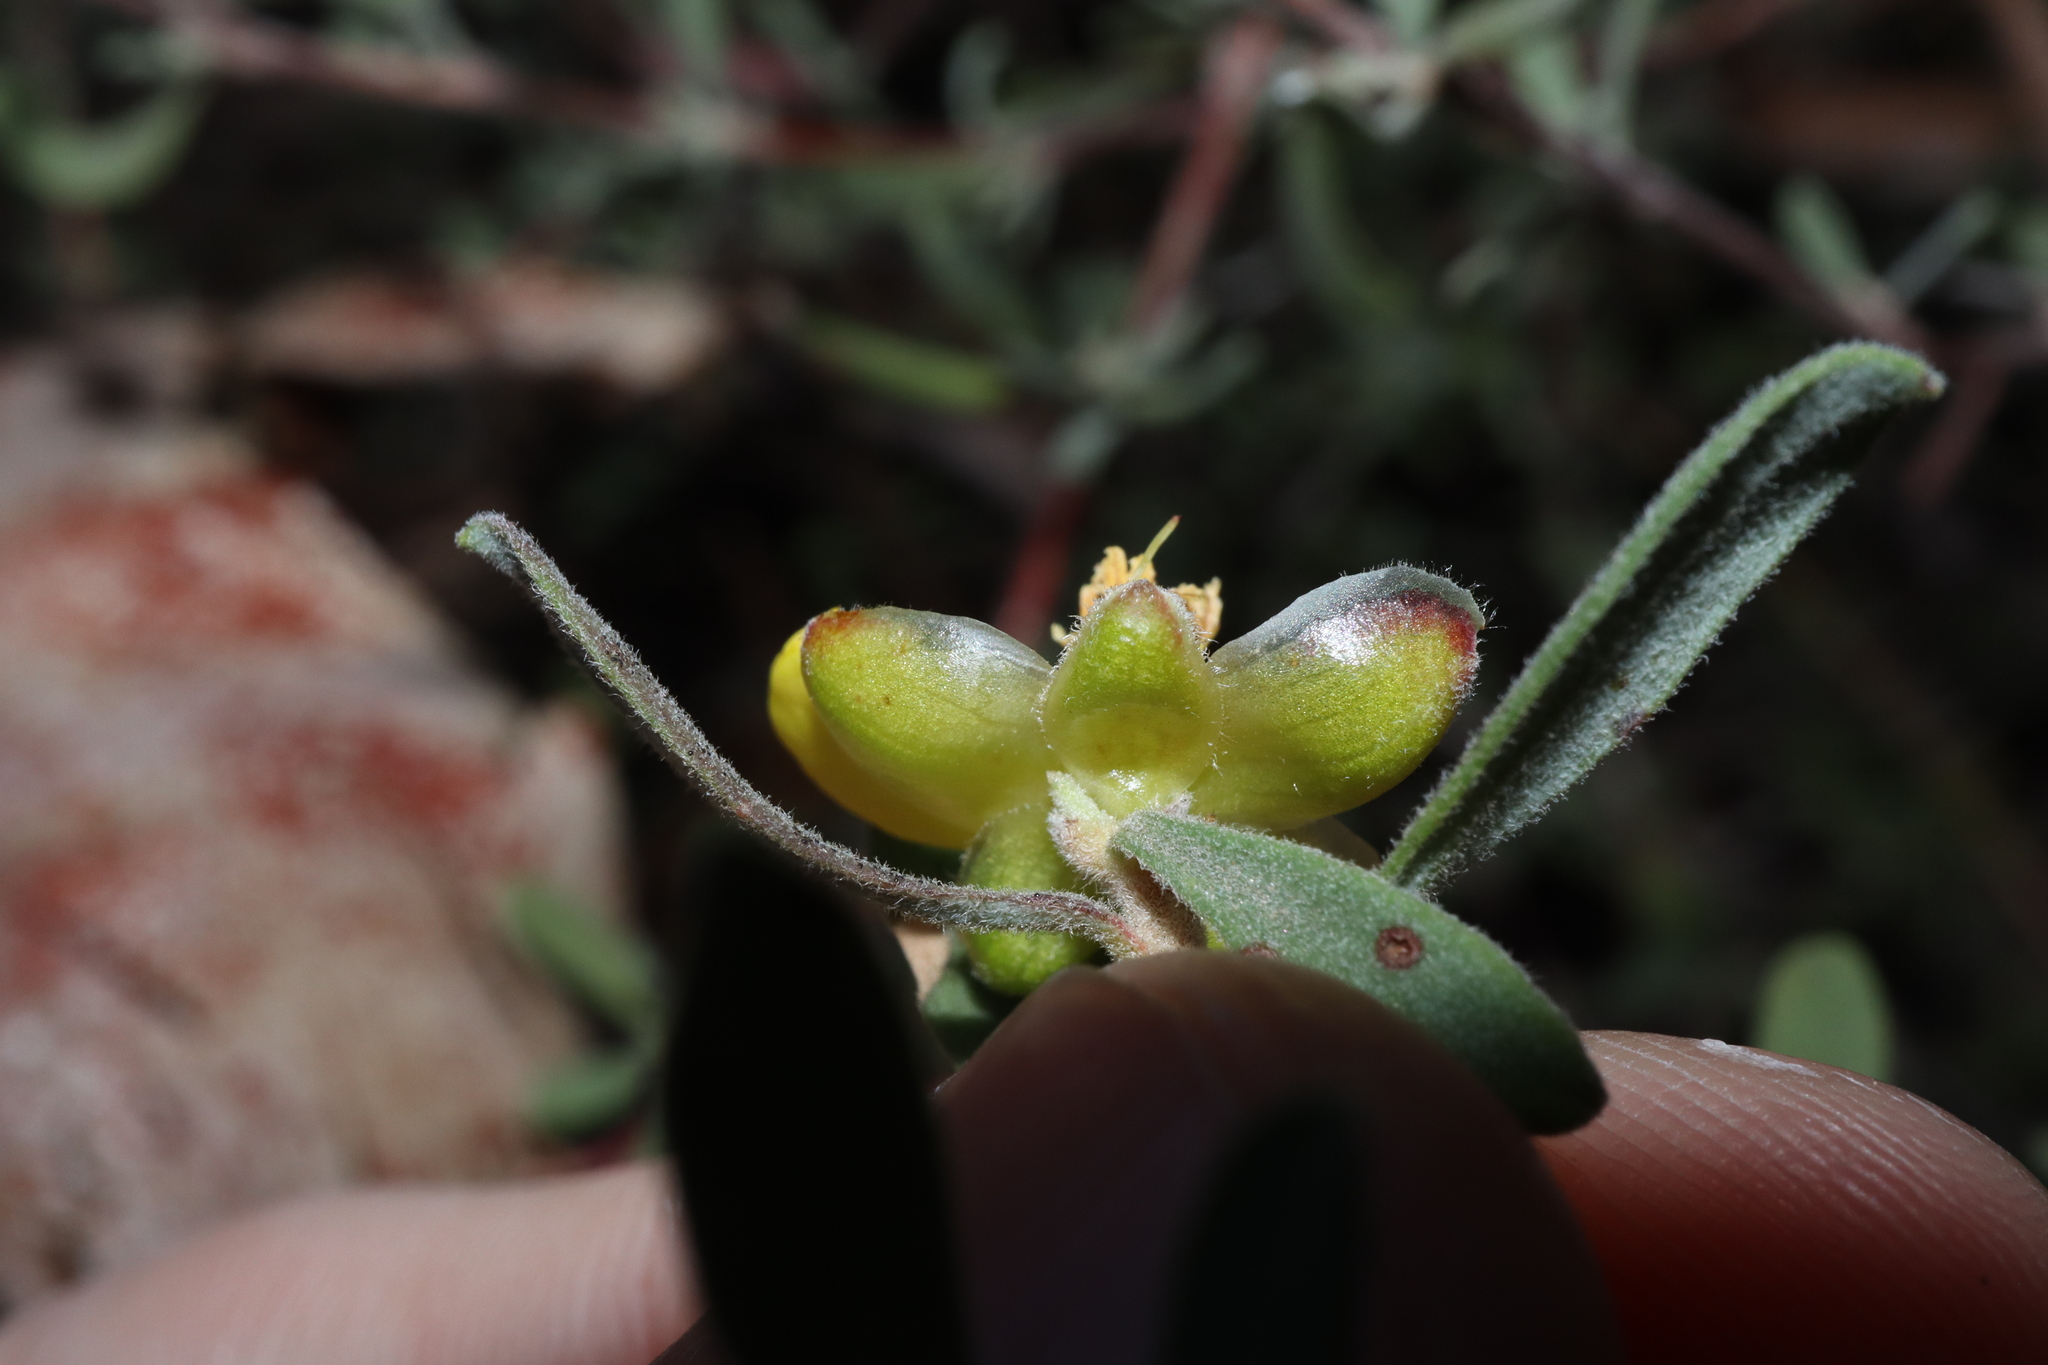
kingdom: Plantae
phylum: Tracheophyta
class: Magnoliopsida
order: Dilleniales
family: Dilleniaceae
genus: Hibbertia
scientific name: Hibbertia obtusifolia
